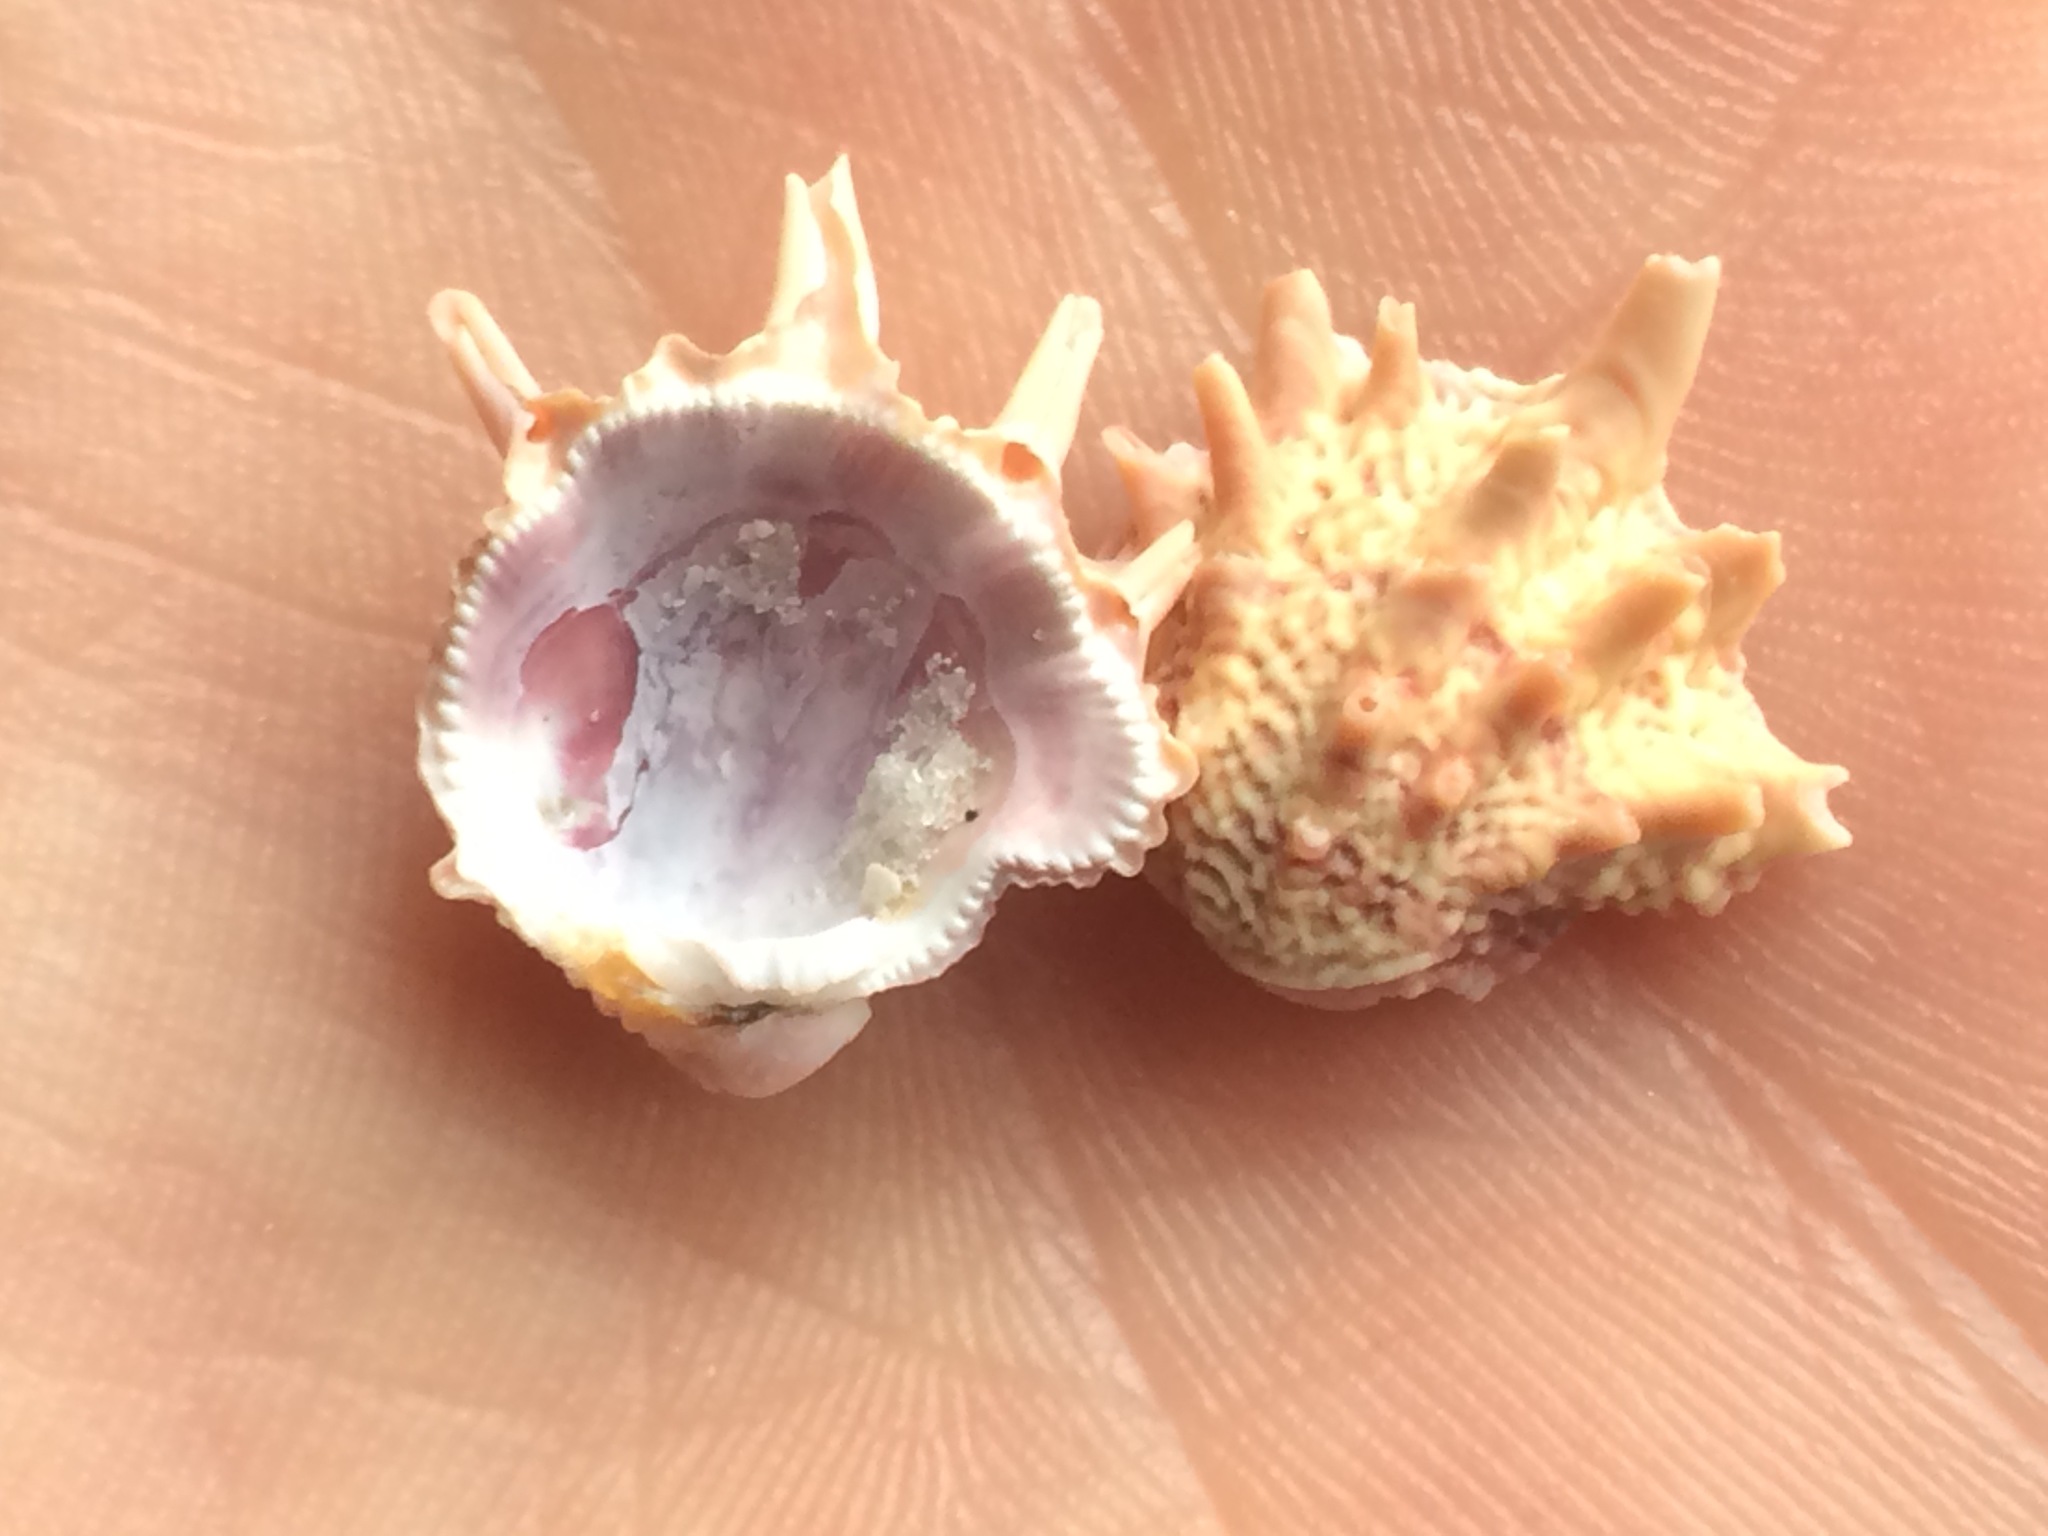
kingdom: Animalia
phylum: Mollusca
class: Bivalvia
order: Venerida
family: Chamidae
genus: Arcinella
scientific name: Arcinella cornuta
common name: Florida spiny jewel box
